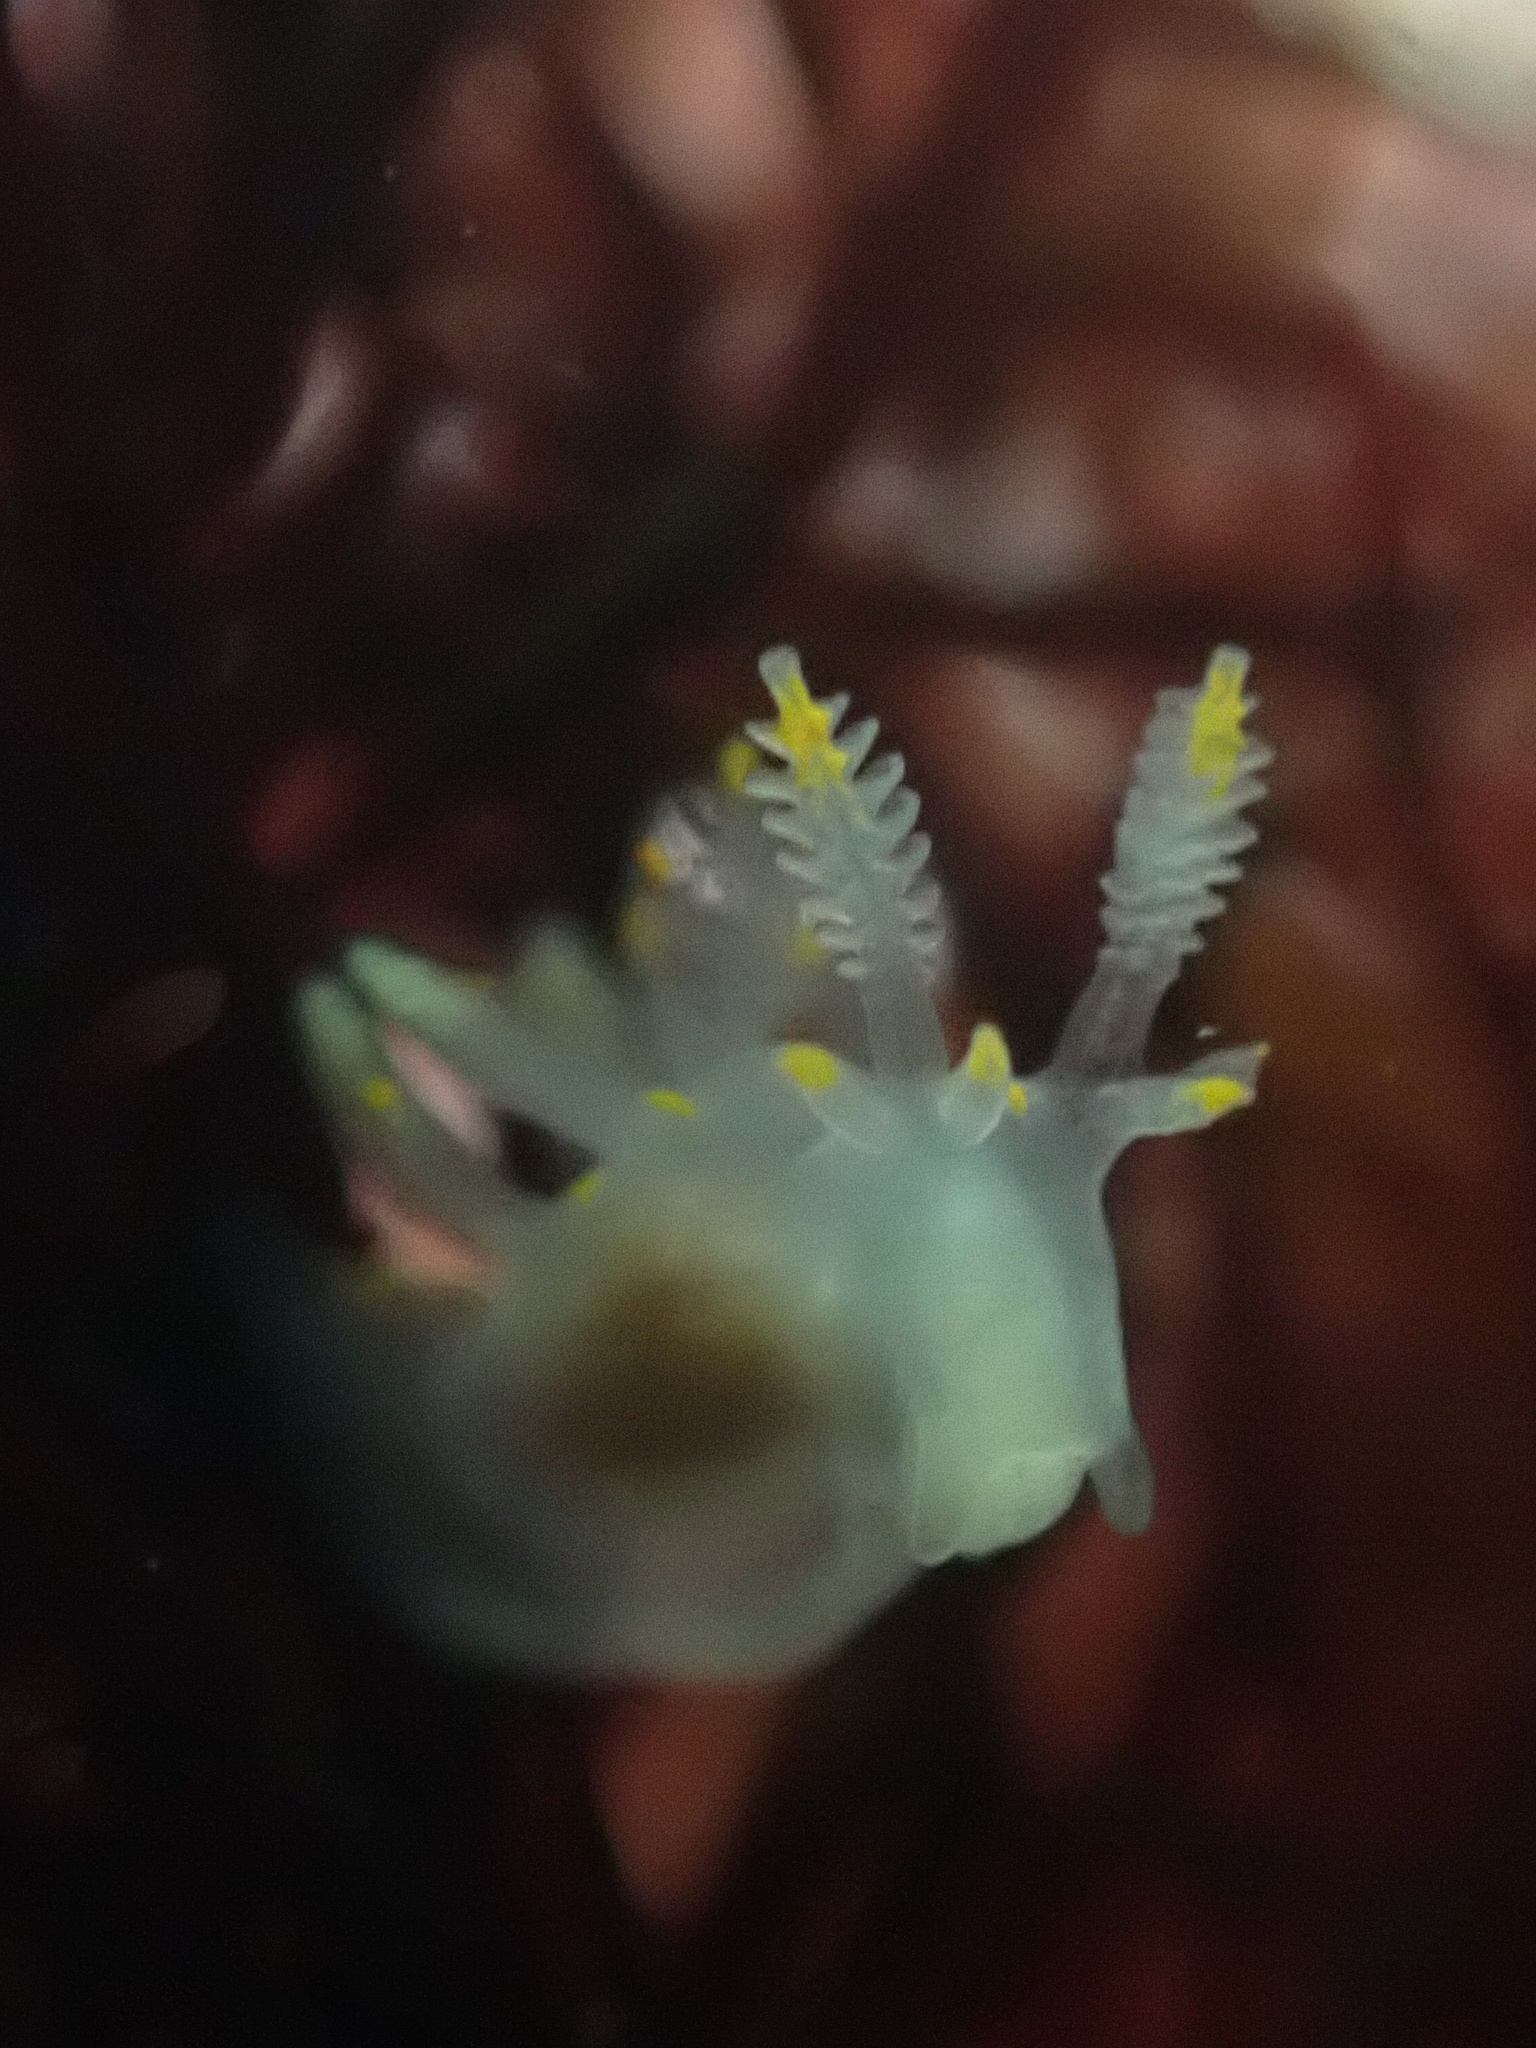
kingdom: Animalia
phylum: Mollusca
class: Gastropoda
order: Nudibranchia
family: Goniodorididae
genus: Ancula
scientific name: Ancula pacifica
